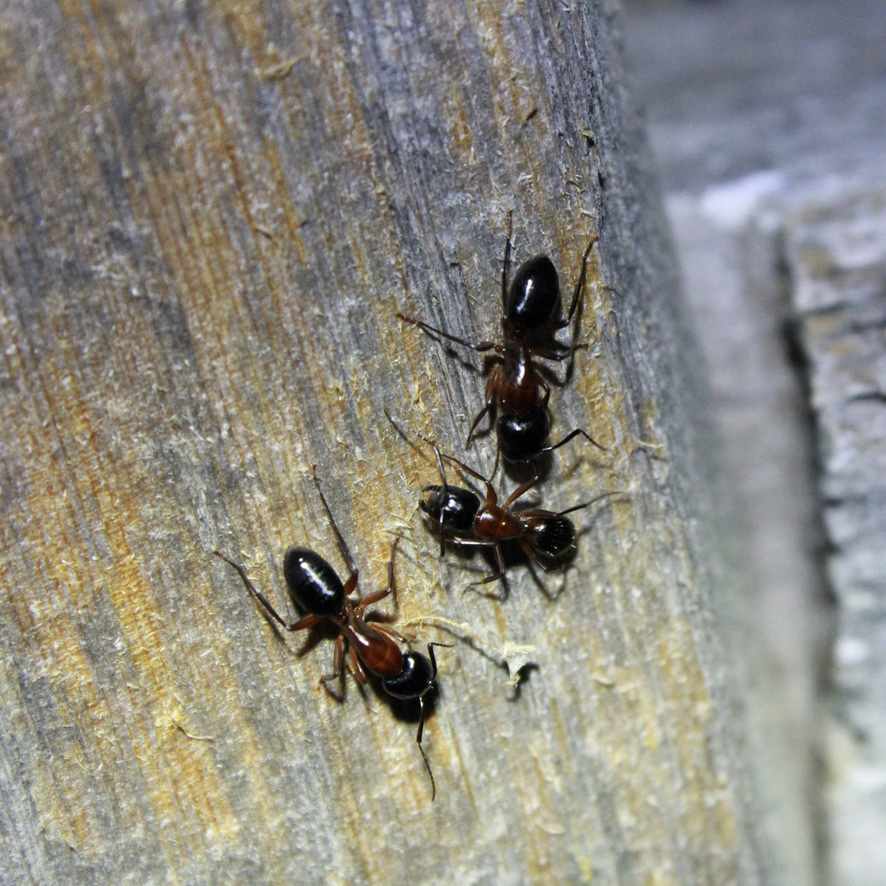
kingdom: Animalia
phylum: Arthropoda
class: Insecta
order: Hymenoptera
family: Formicidae
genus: Camponotus
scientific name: Camponotus texanus
